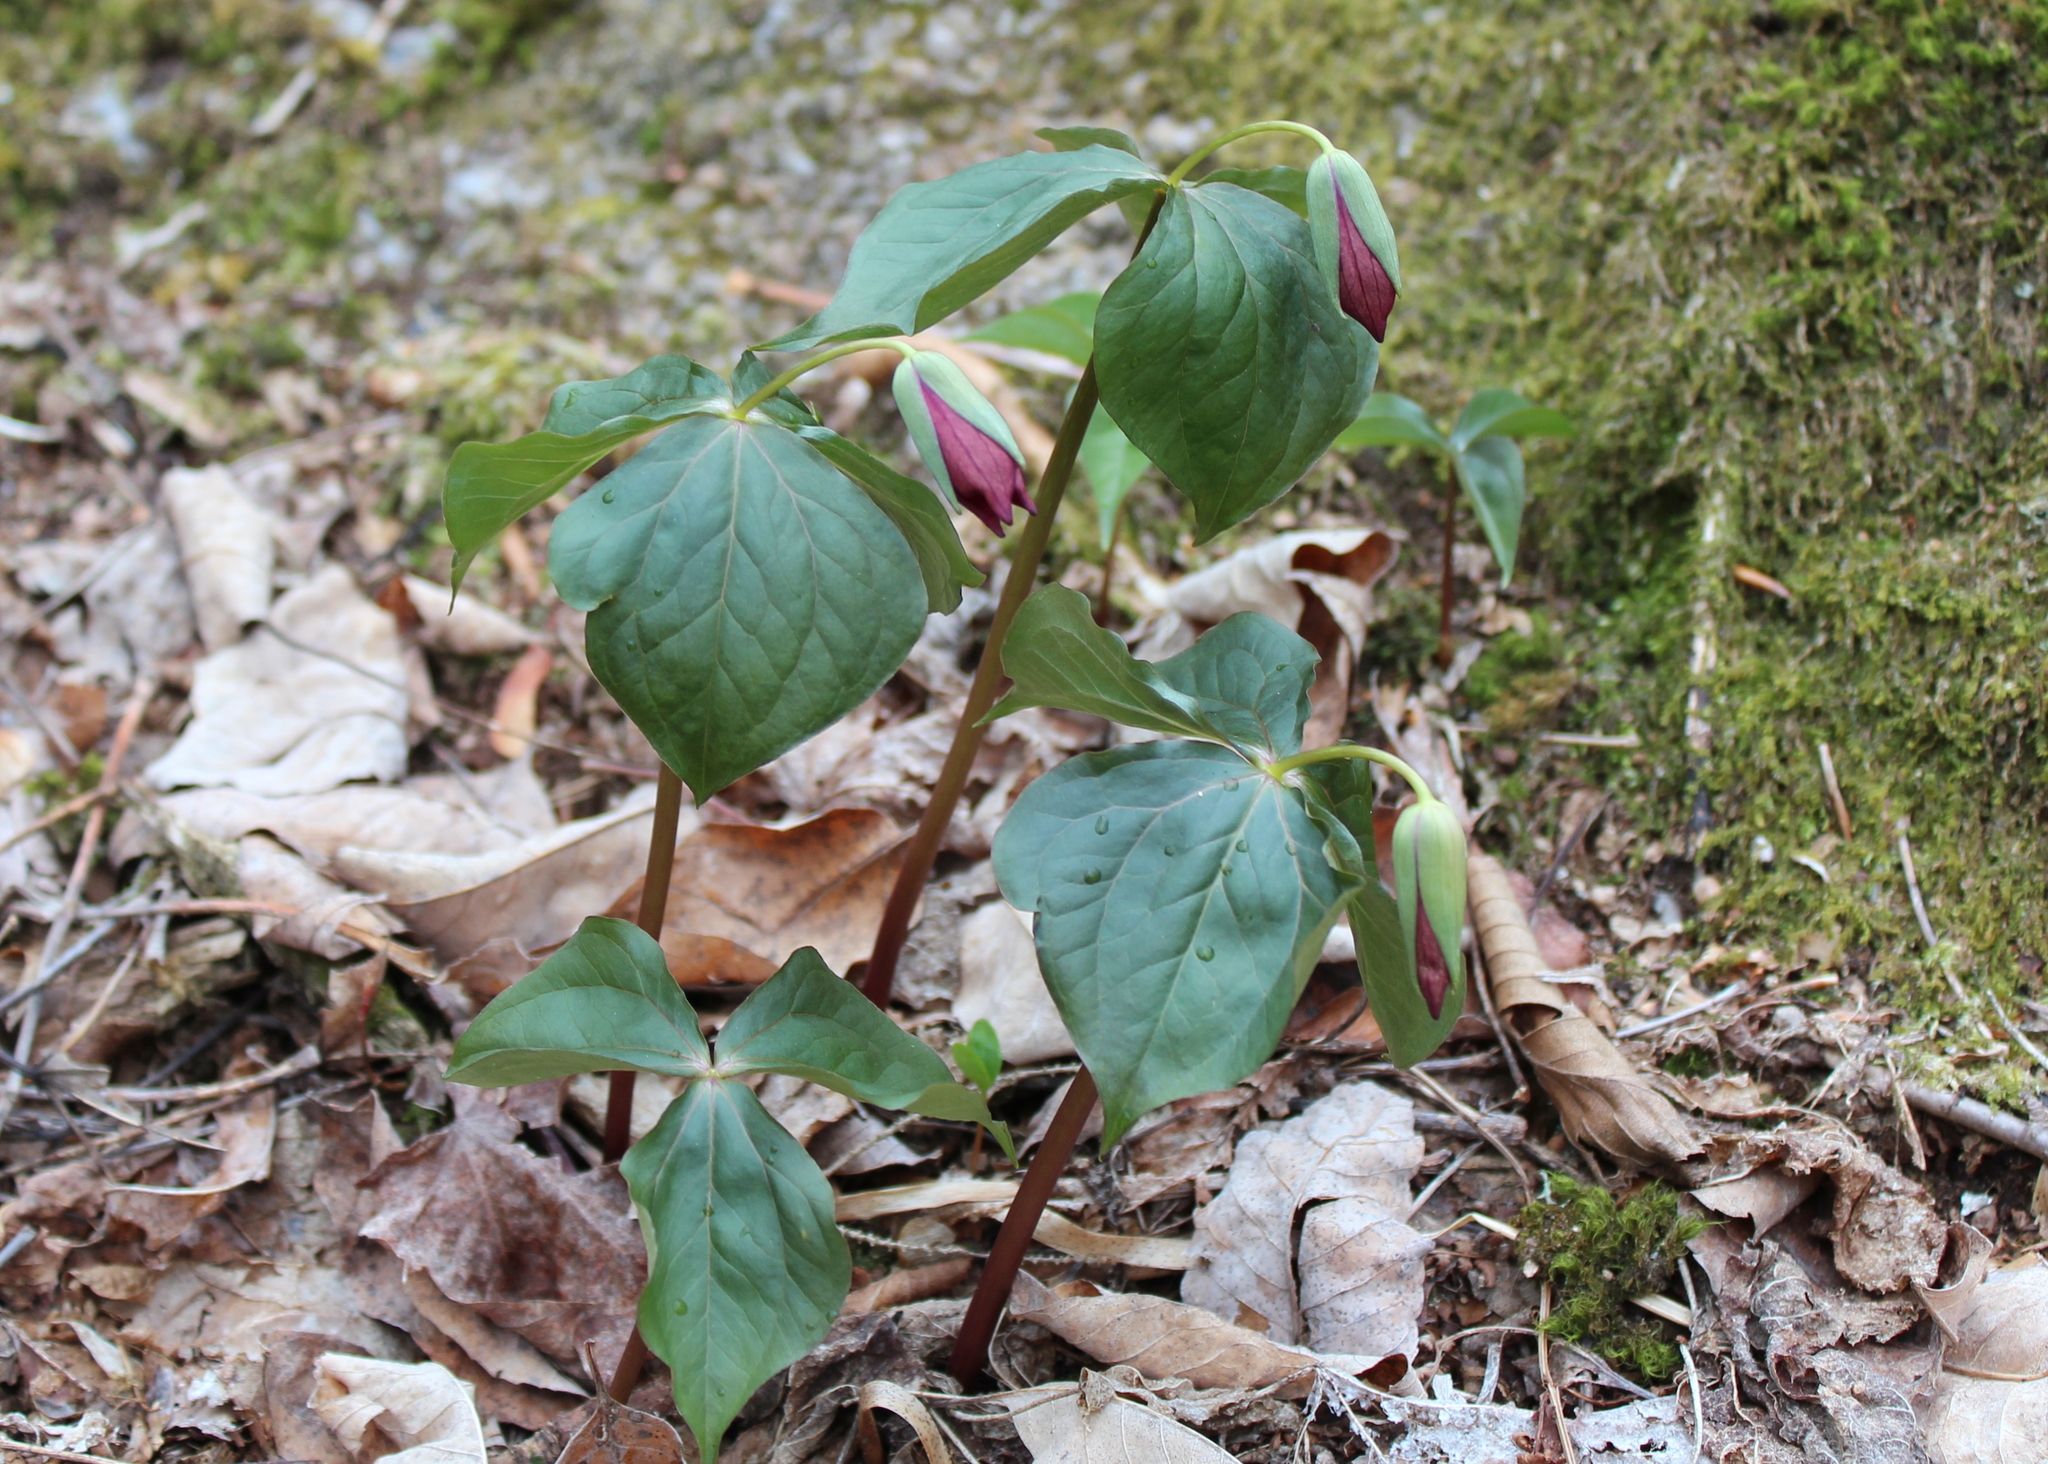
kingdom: Plantae
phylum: Tracheophyta
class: Liliopsida
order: Liliales
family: Melanthiaceae
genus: Trillium
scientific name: Trillium erectum
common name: Purple trillium
